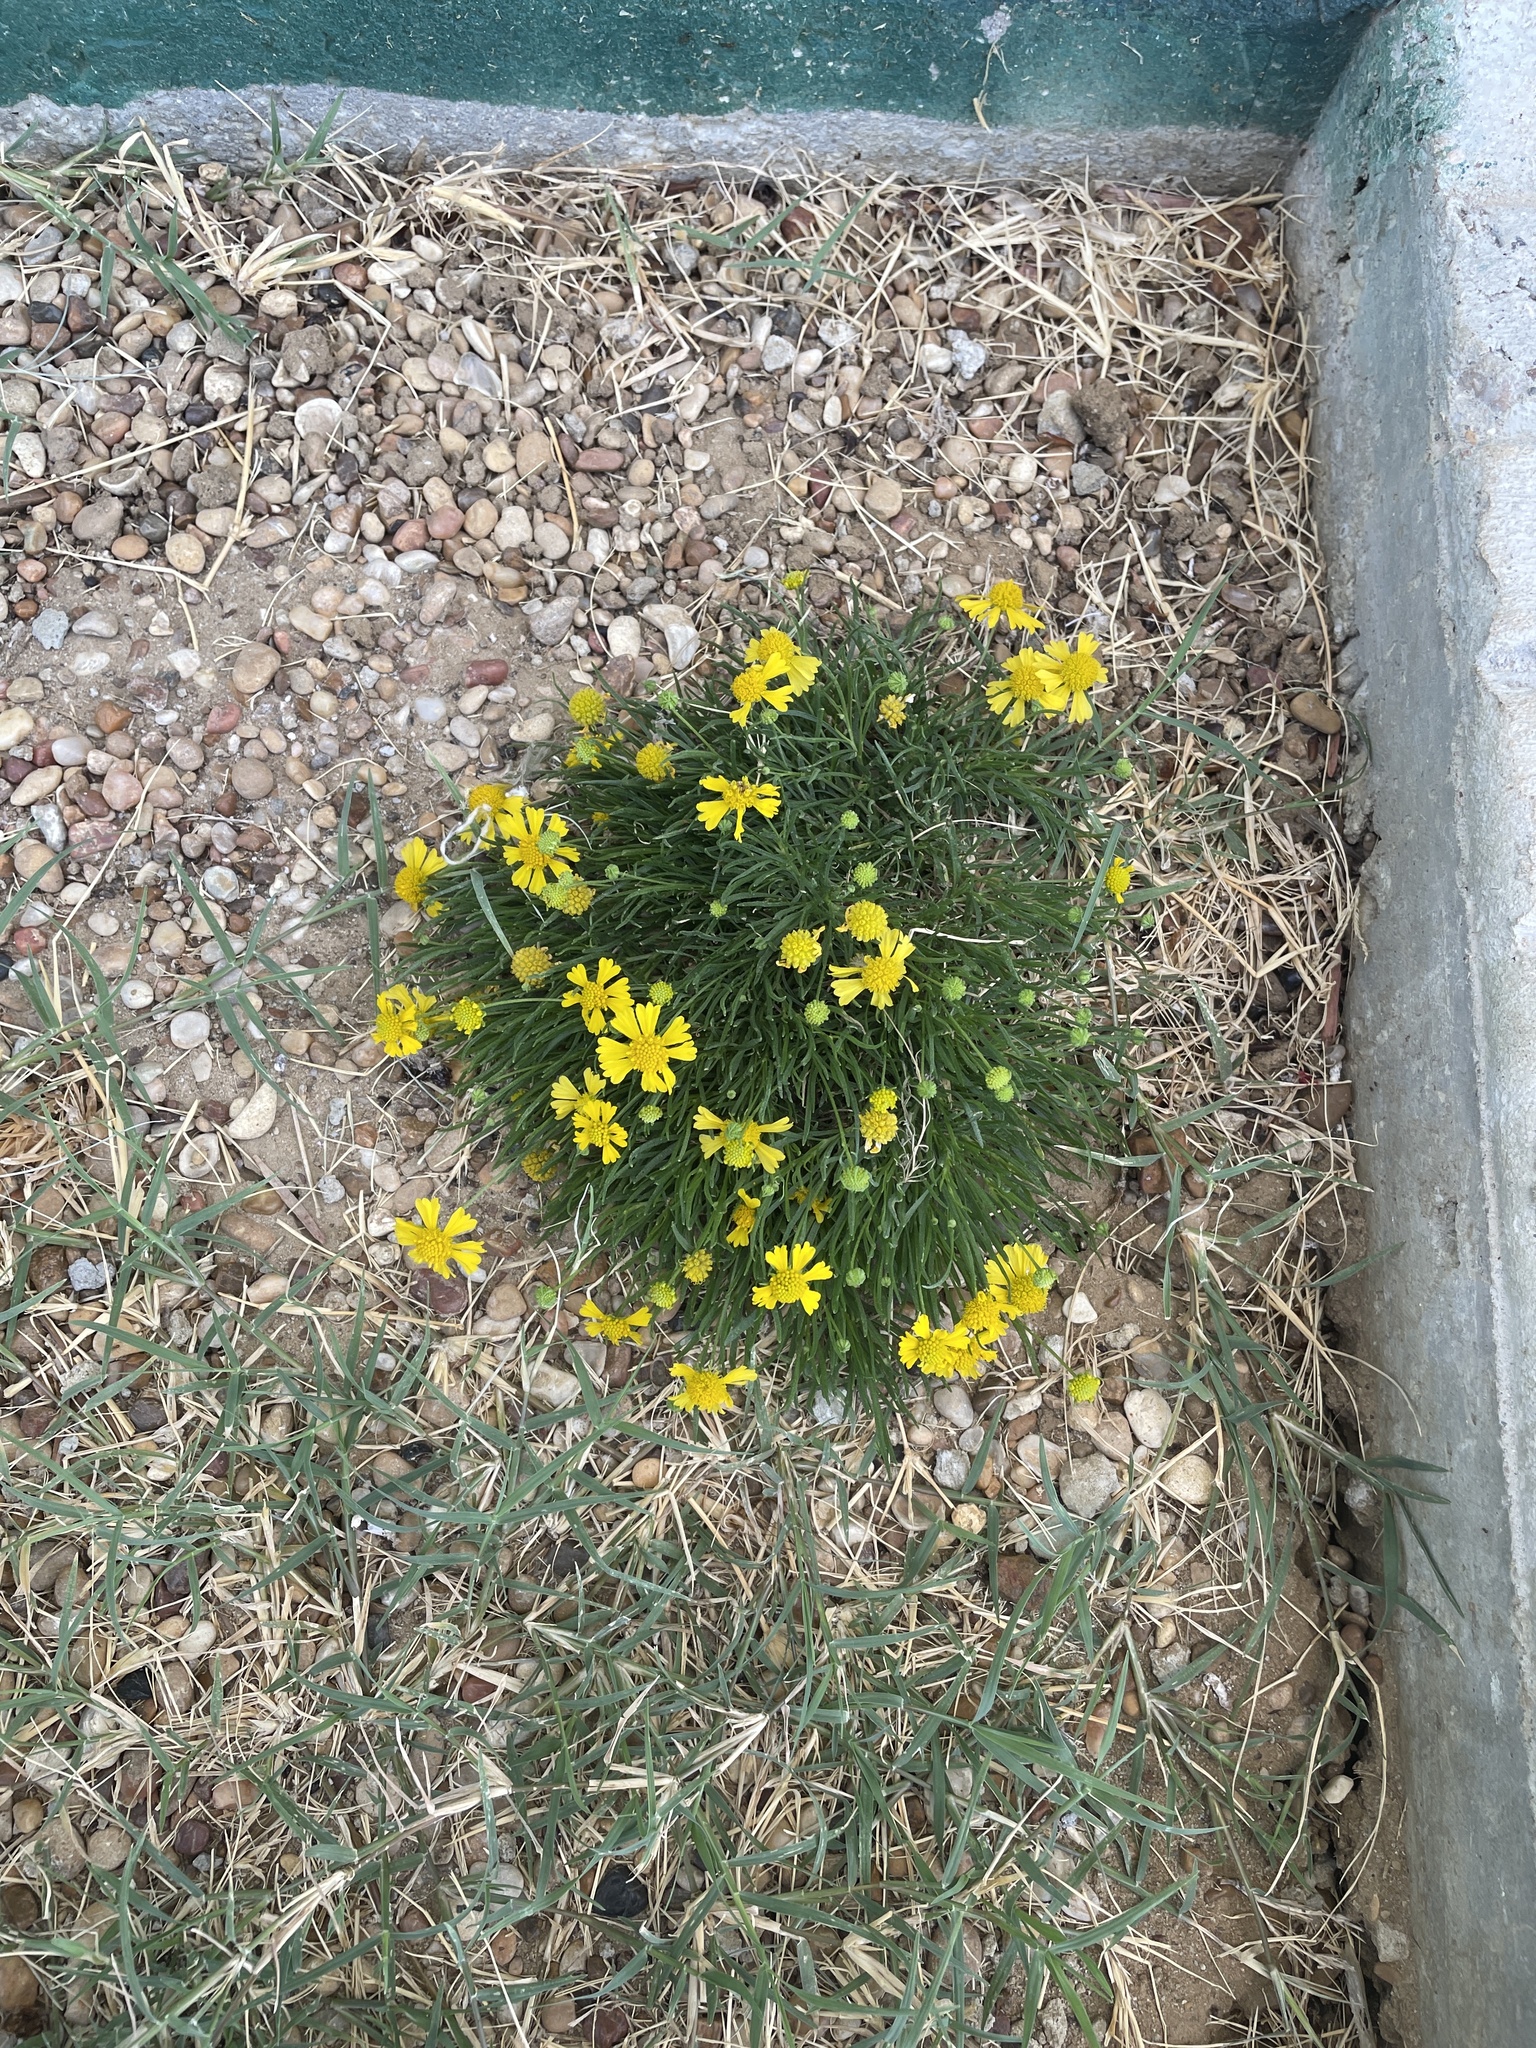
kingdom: Plantae
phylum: Tracheophyta
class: Magnoliopsida
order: Asterales
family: Asteraceae
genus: Helenium
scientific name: Helenium amarum
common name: Bitter sneezeweed
